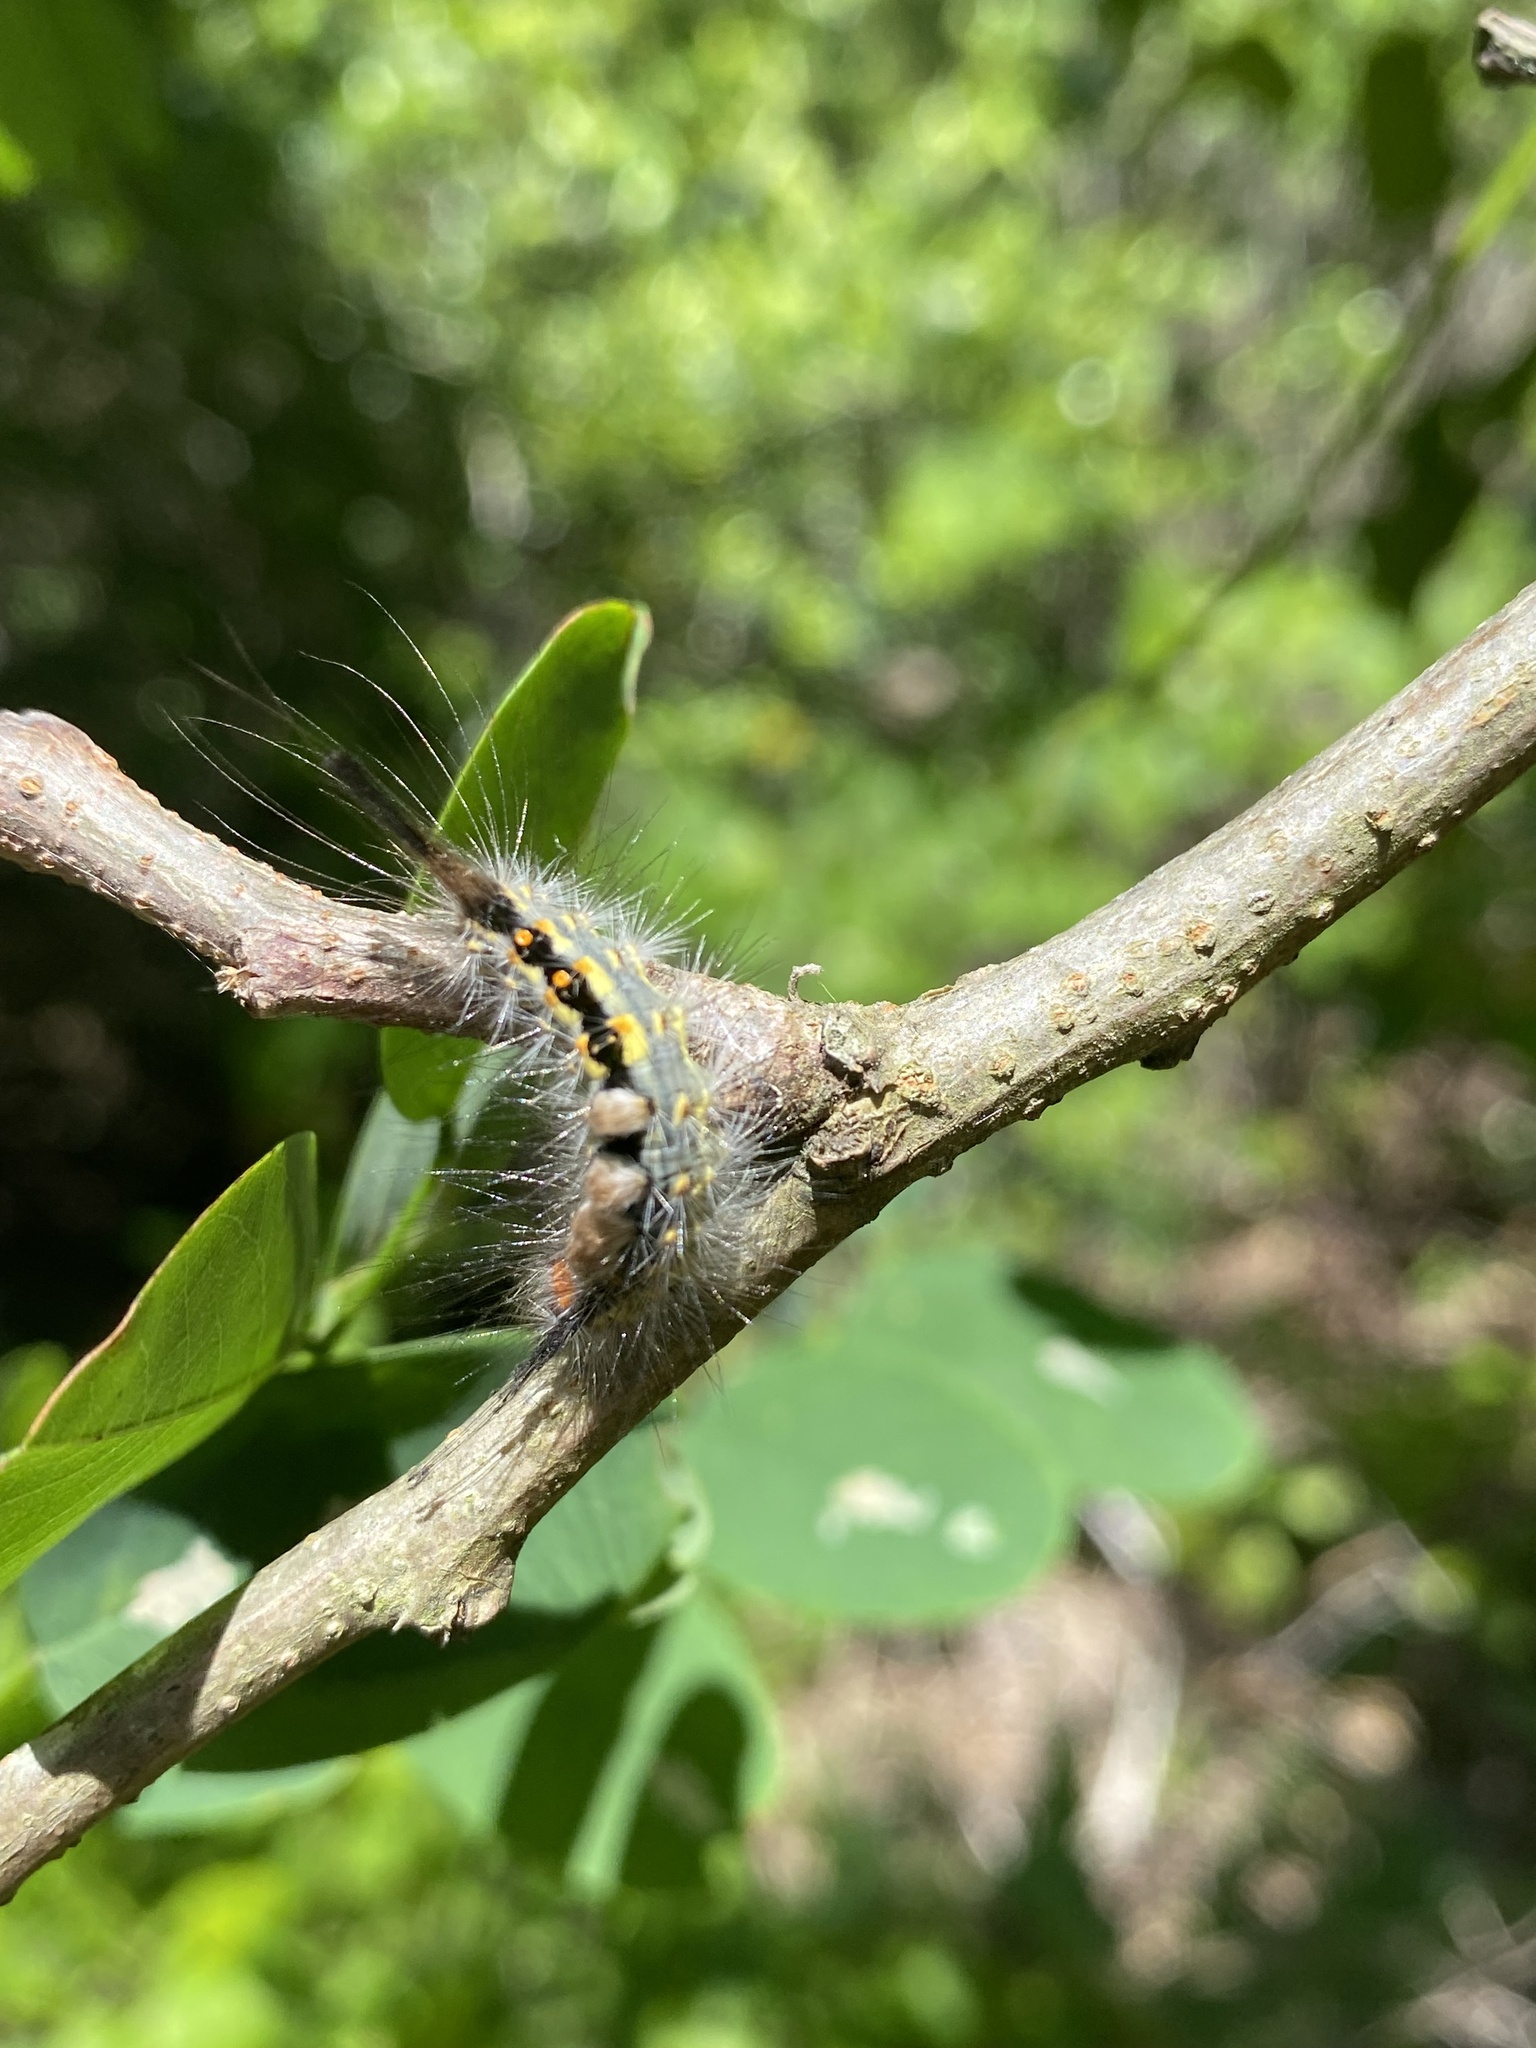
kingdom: Animalia
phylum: Arthropoda
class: Insecta
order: Lepidoptera
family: Erebidae
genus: Orgyia
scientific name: Orgyia detrita
